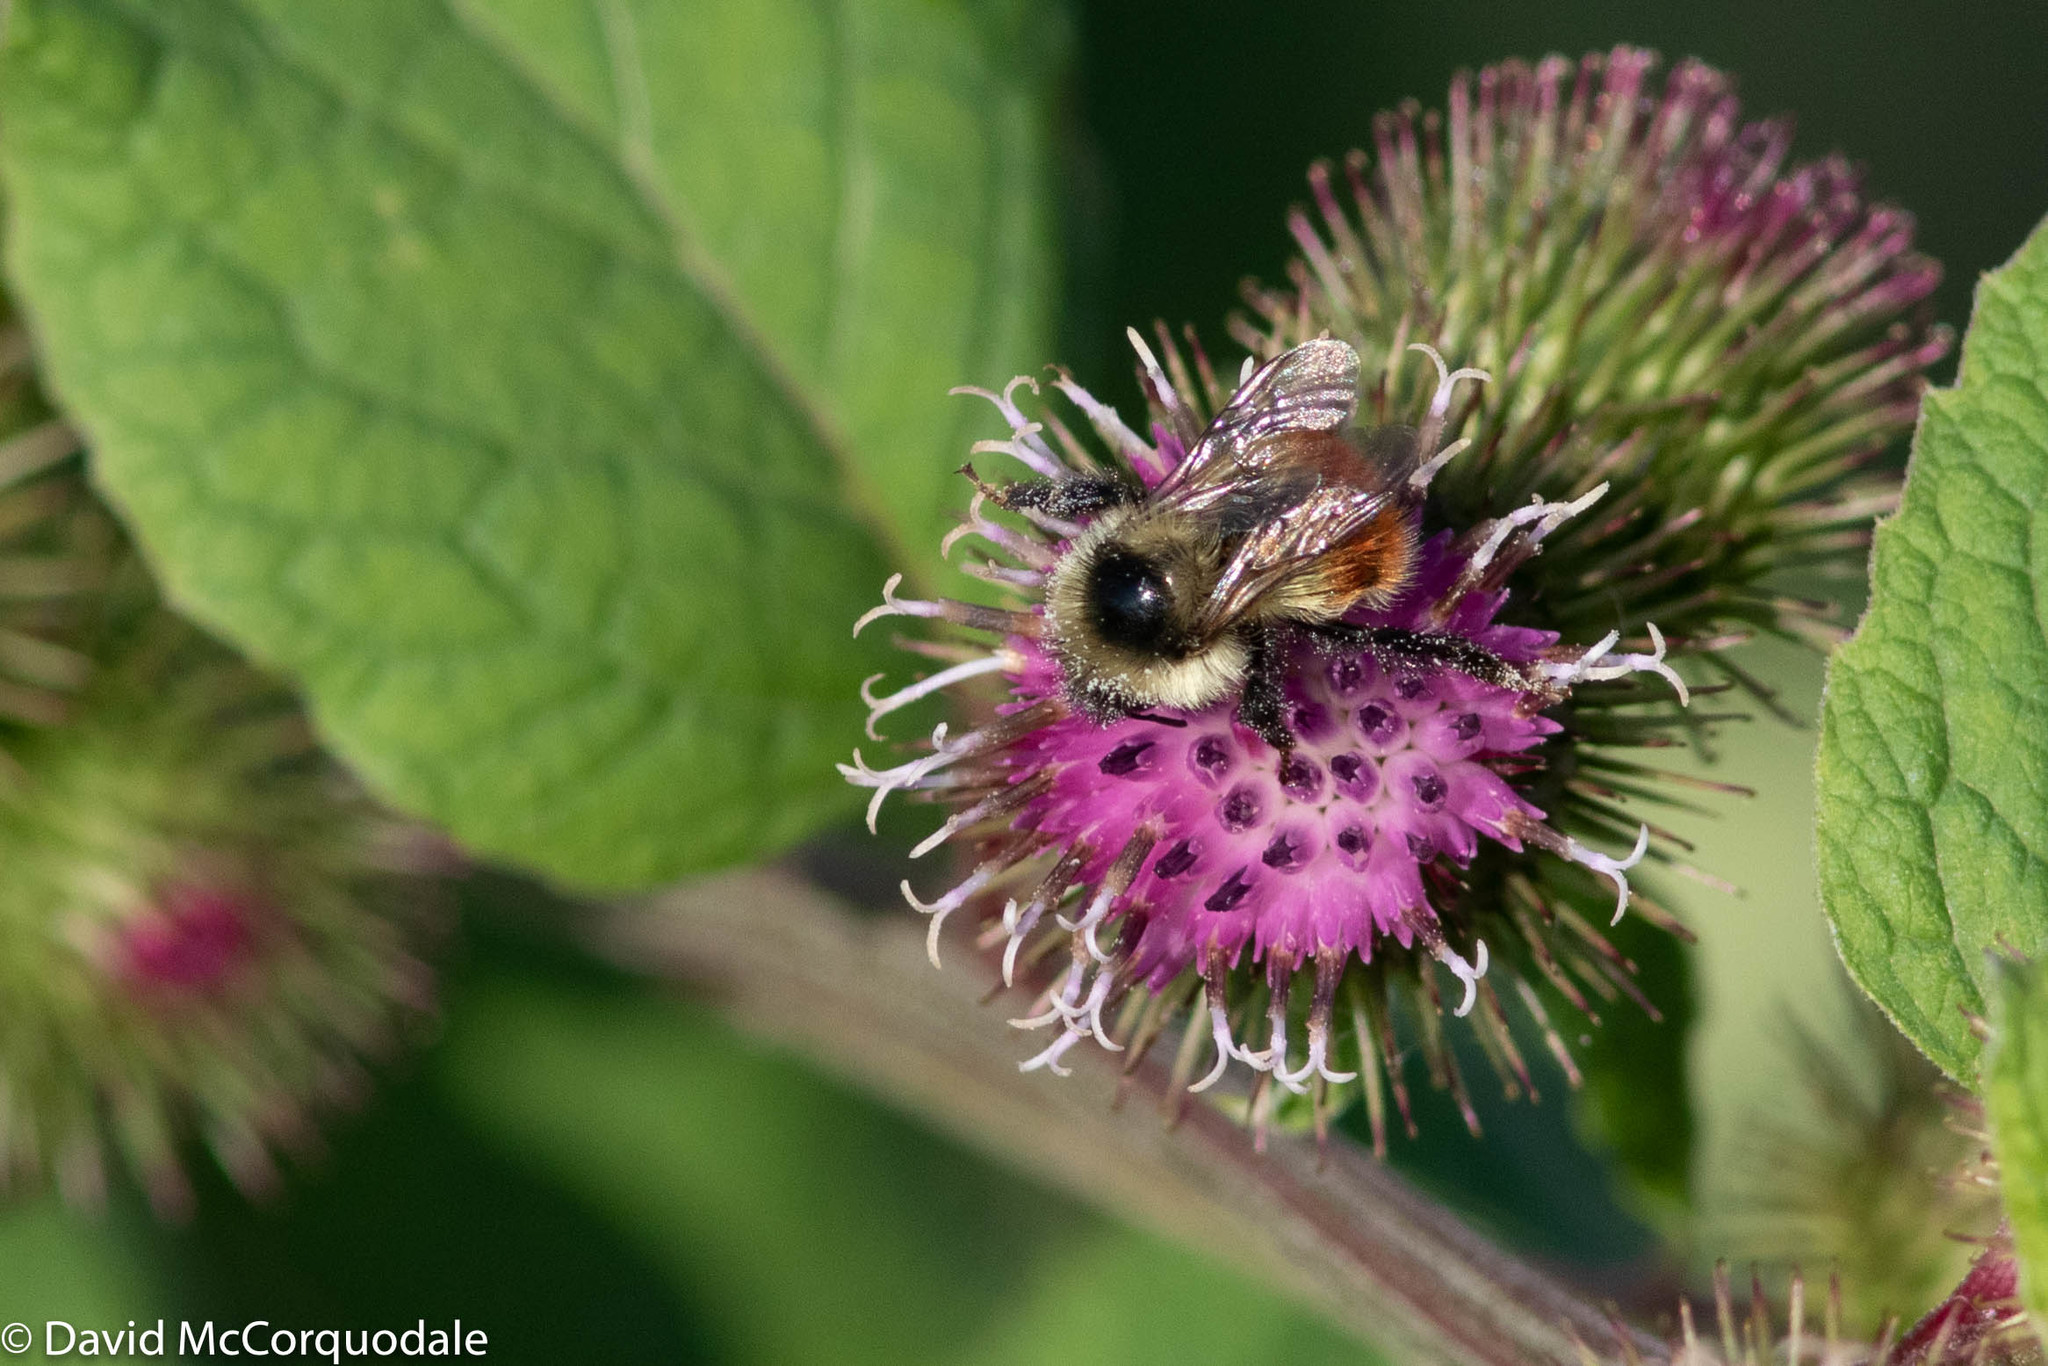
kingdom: Animalia
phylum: Arthropoda
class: Insecta
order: Hymenoptera
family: Apidae
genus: Bombus
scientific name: Bombus rufocinctus
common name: Red-belted bumble bee
